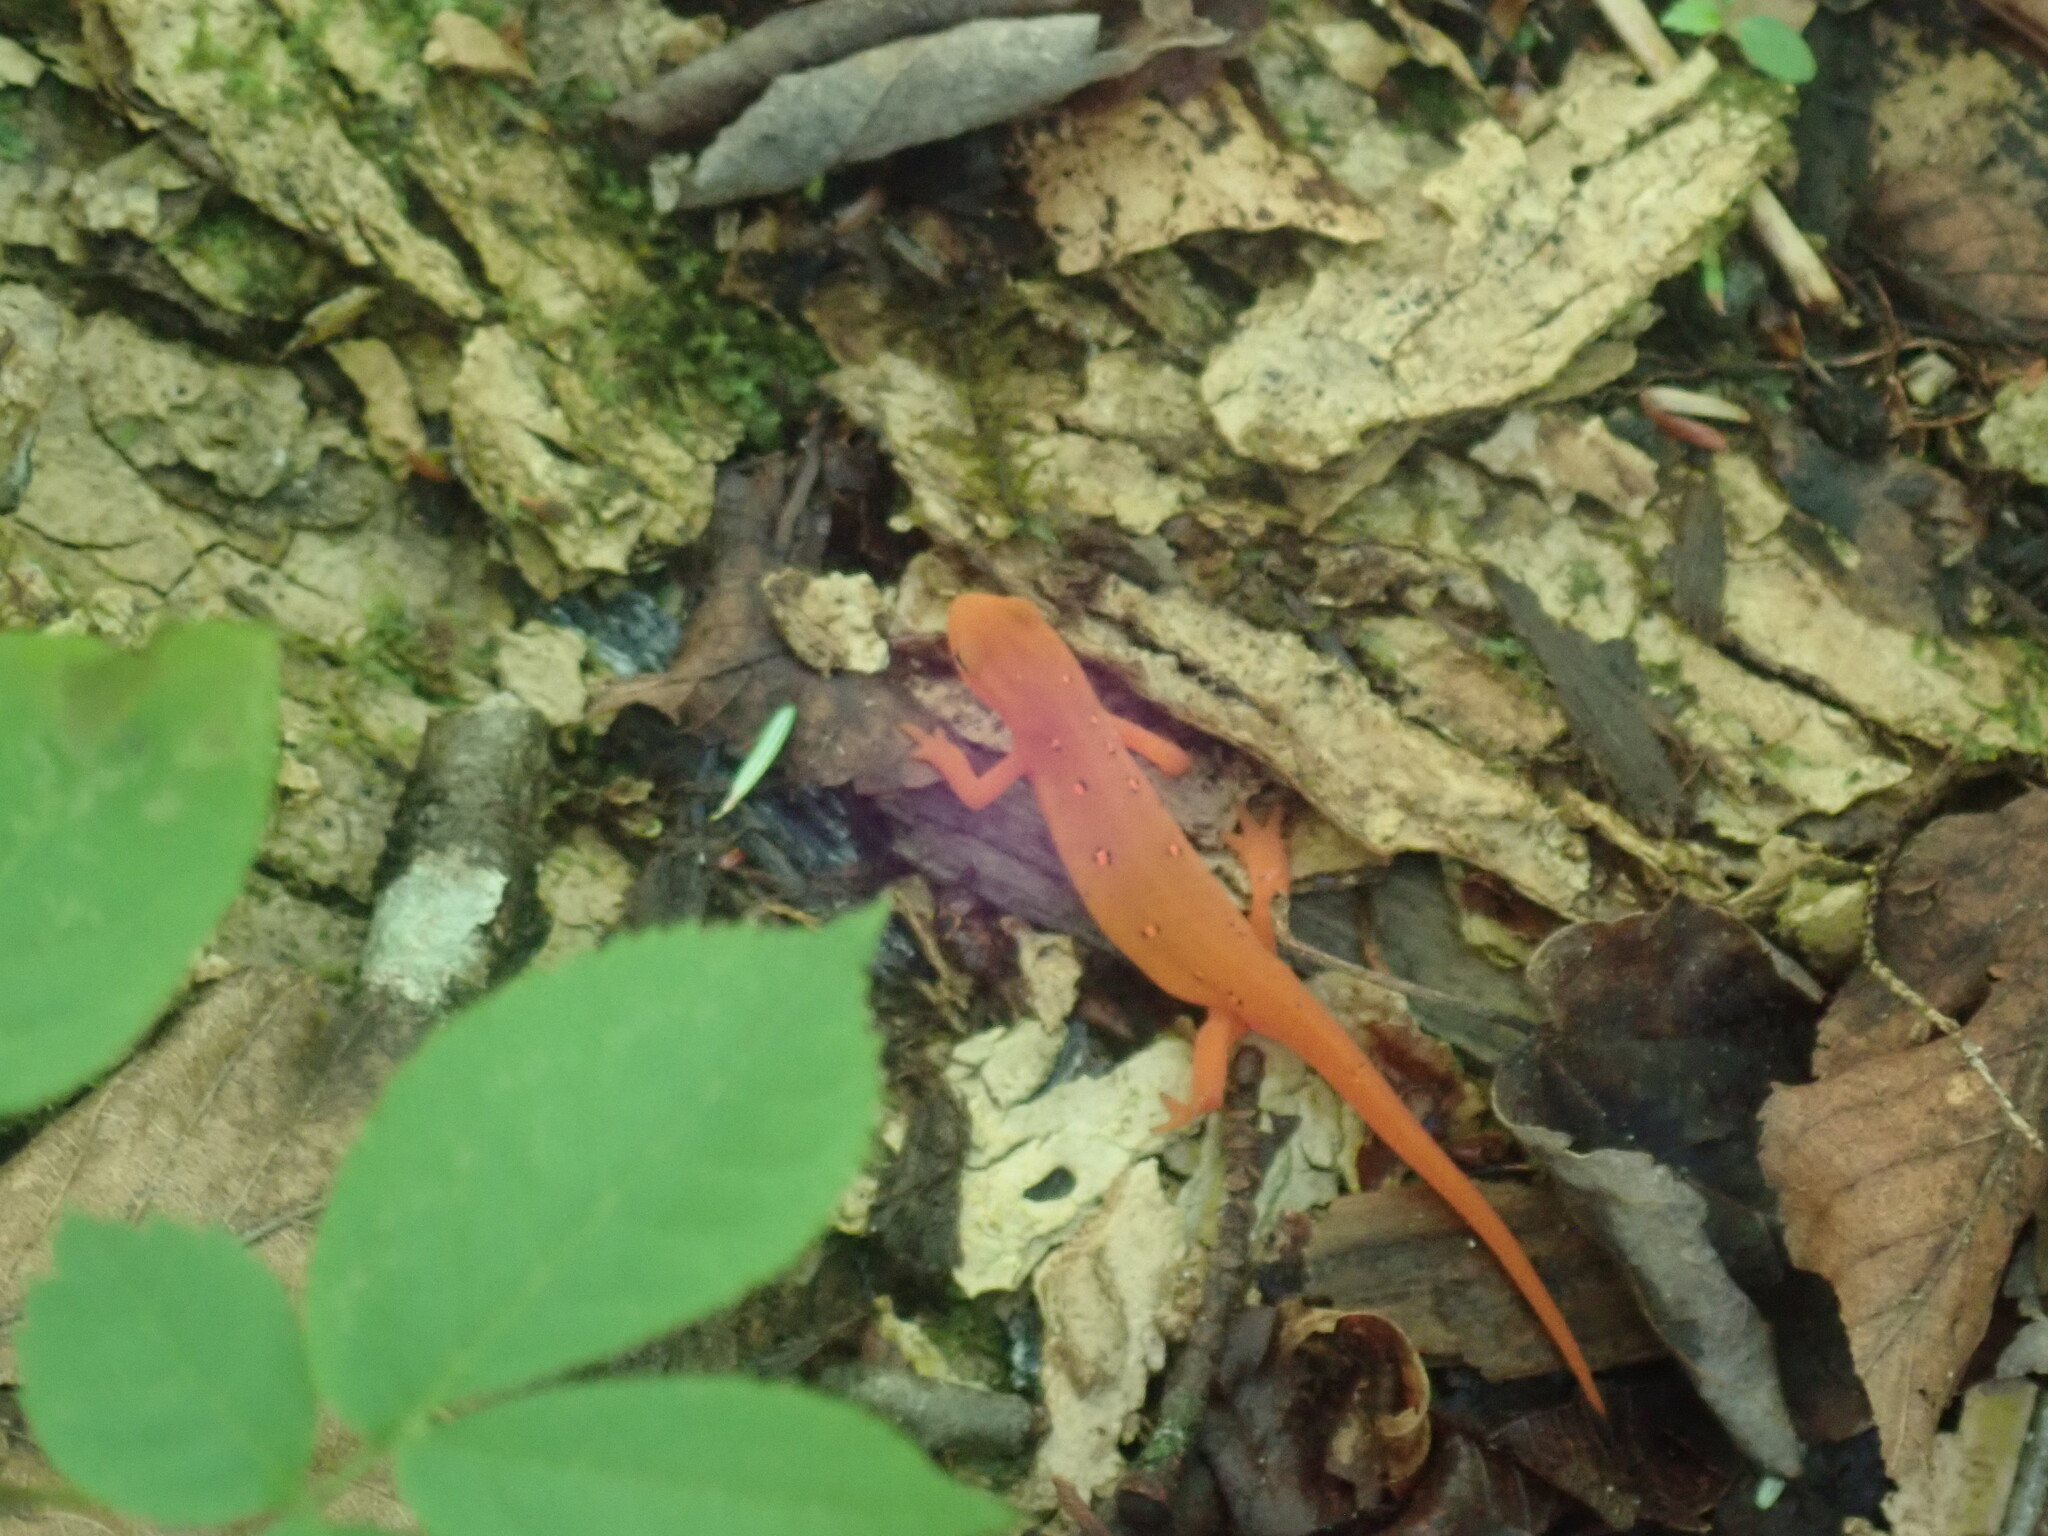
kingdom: Animalia
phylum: Chordata
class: Amphibia
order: Caudata
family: Salamandridae
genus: Notophthalmus
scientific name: Notophthalmus viridescens
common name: Eastern newt
